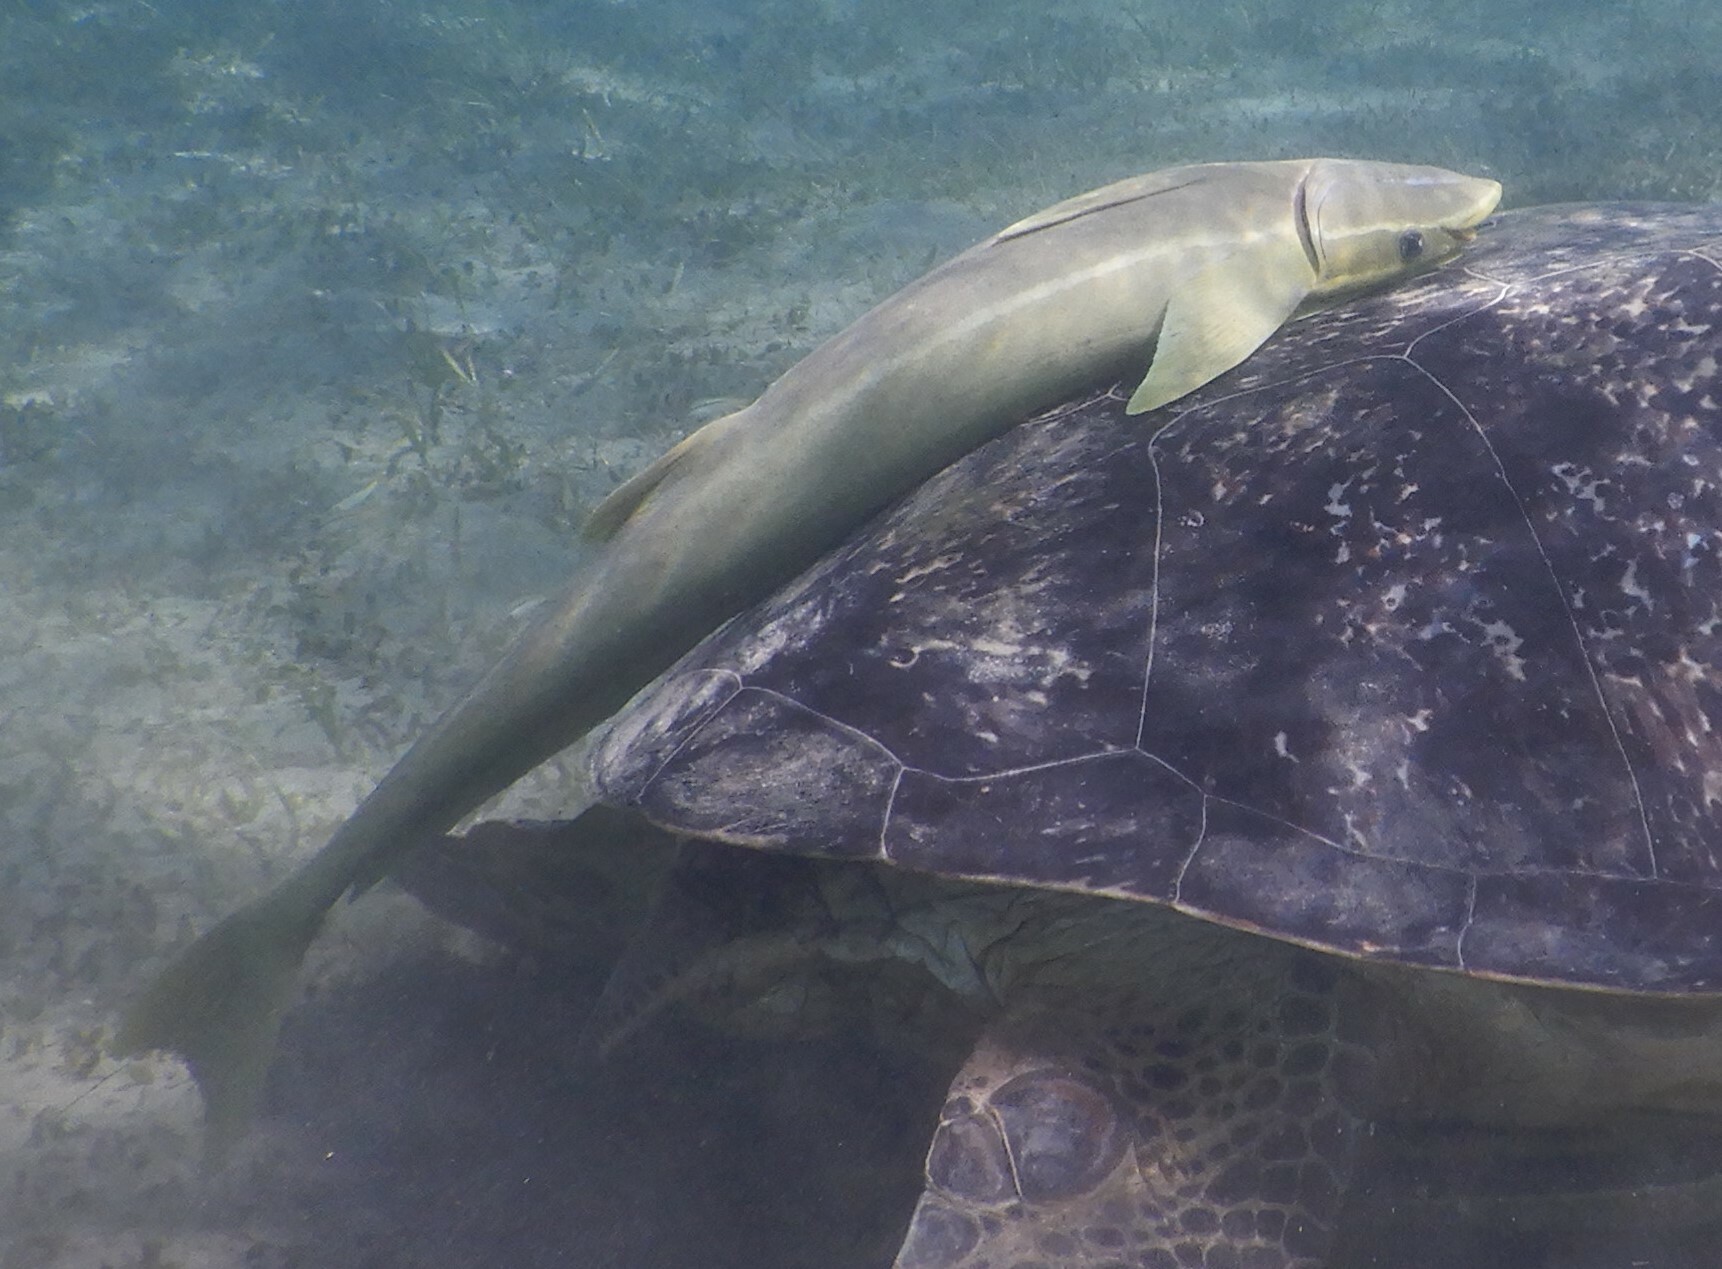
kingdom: Animalia
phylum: Chordata
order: Perciformes
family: Echeneidae
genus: Echeneis
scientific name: Echeneis naucrates
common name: Sharksucker
